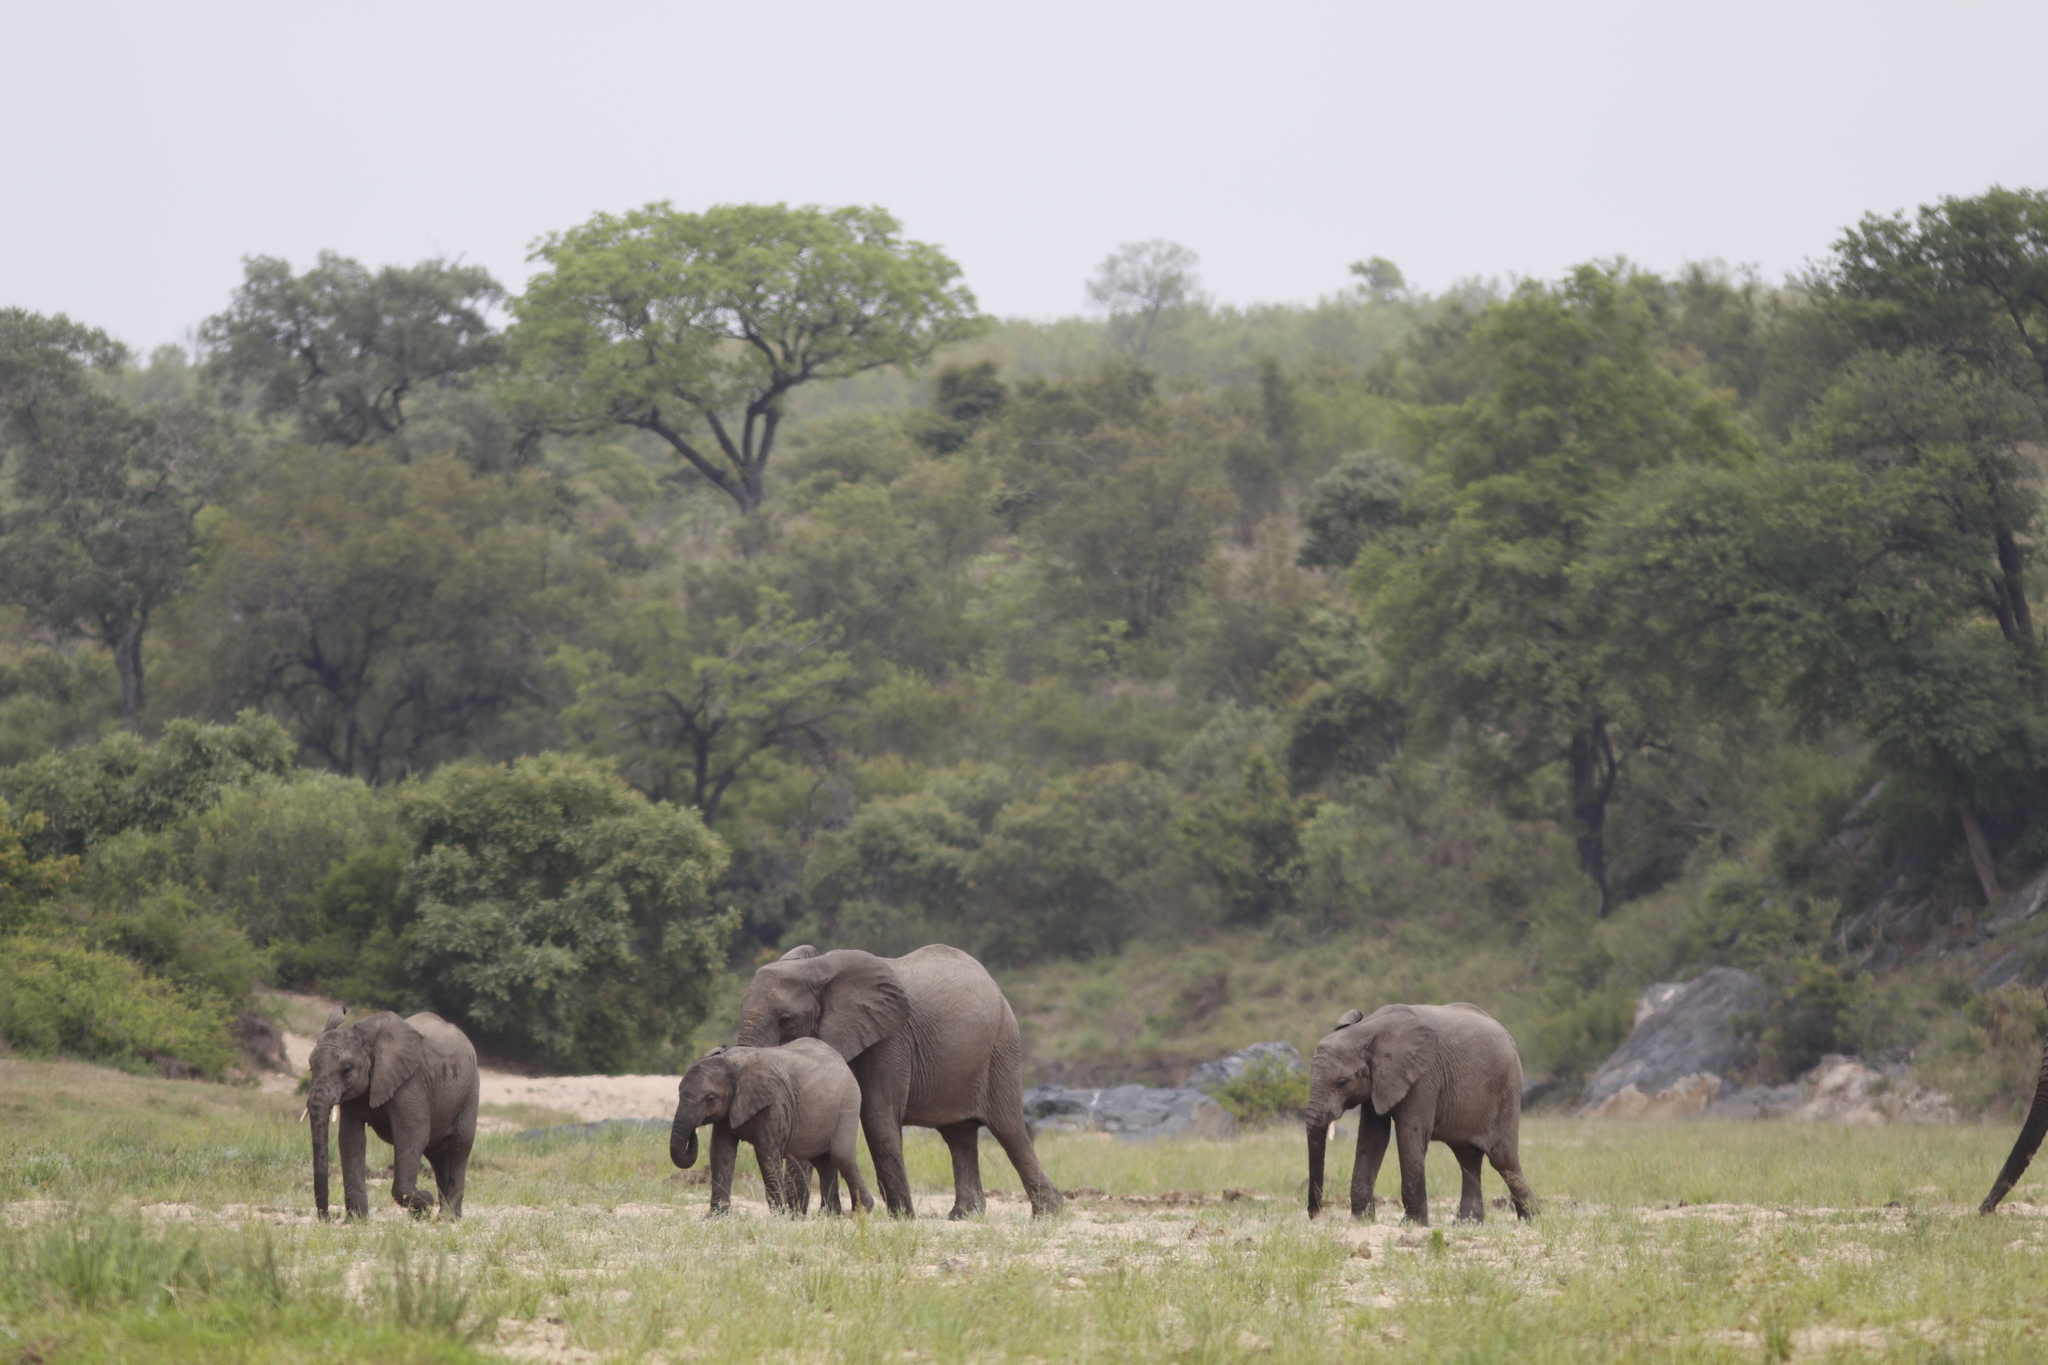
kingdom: Animalia
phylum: Chordata
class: Mammalia
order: Proboscidea
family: Elephantidae
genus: Loxodonta
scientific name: Loxodonta africana
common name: African elephant
